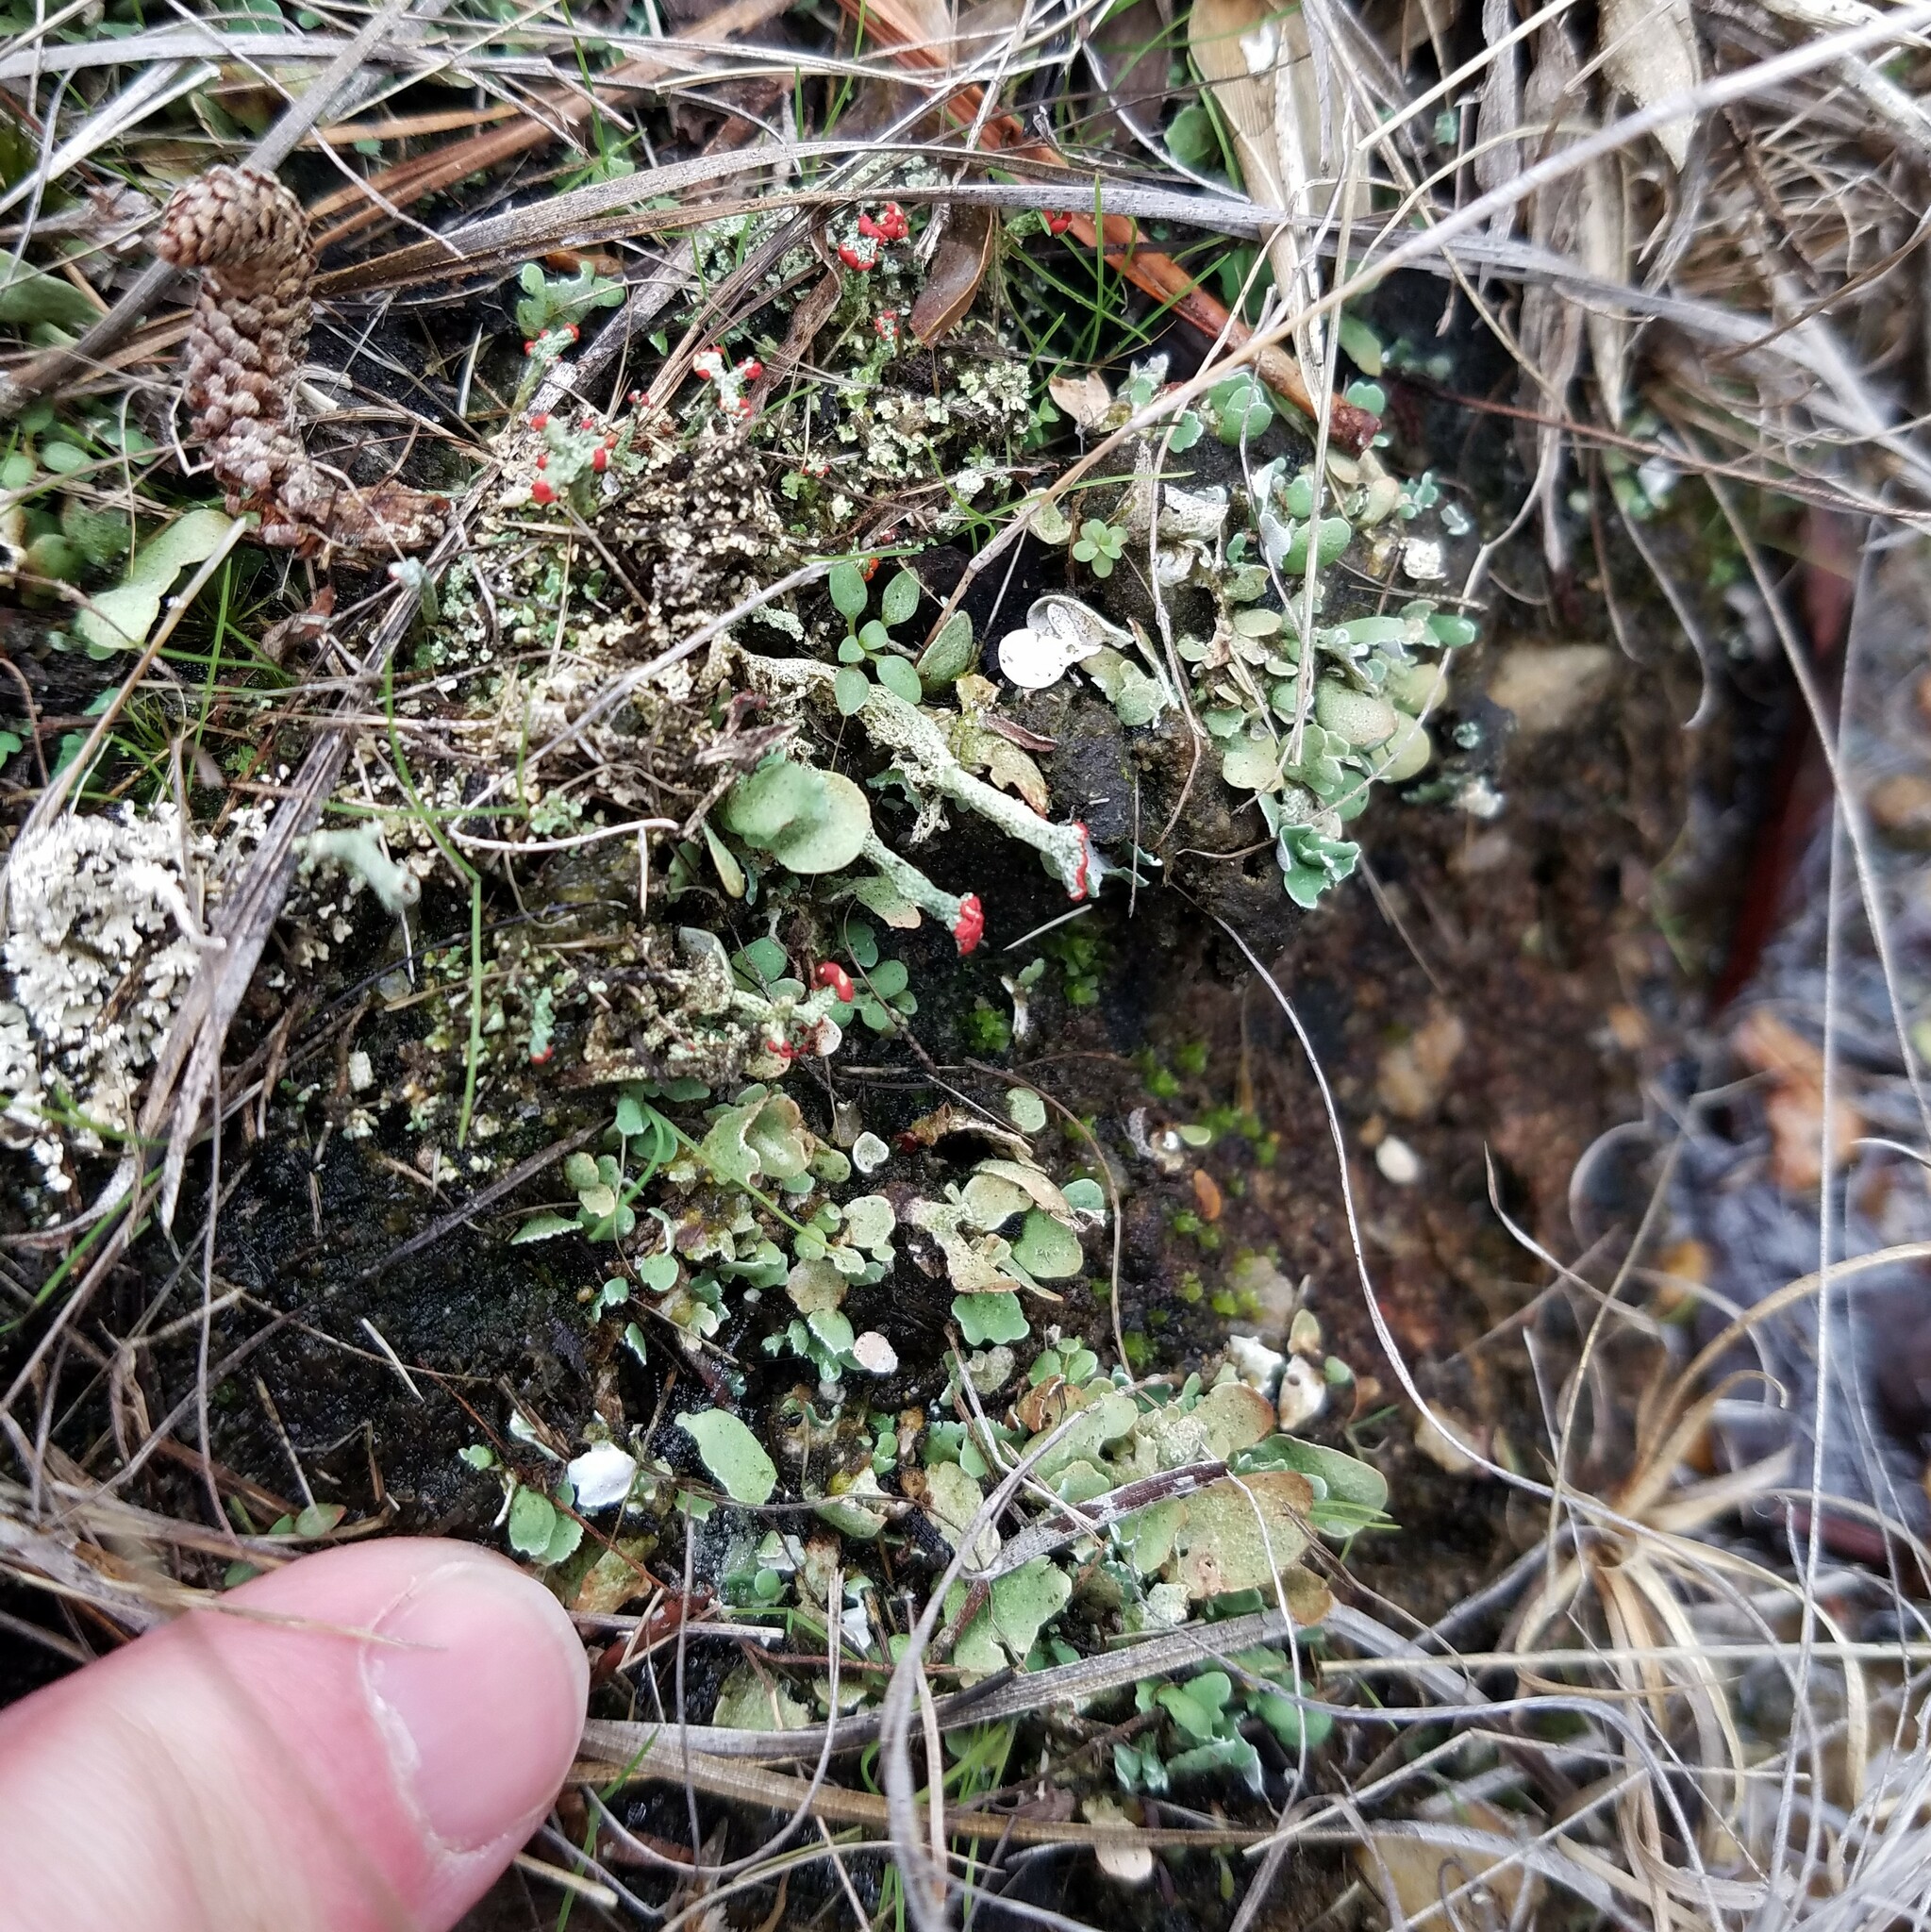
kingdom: Fungi
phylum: Ascomycota
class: Lecanoromycetes
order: Lecanorales
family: Cladoniaceae
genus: Cladonia
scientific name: Cladonia cristatella
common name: British soldier lichen
